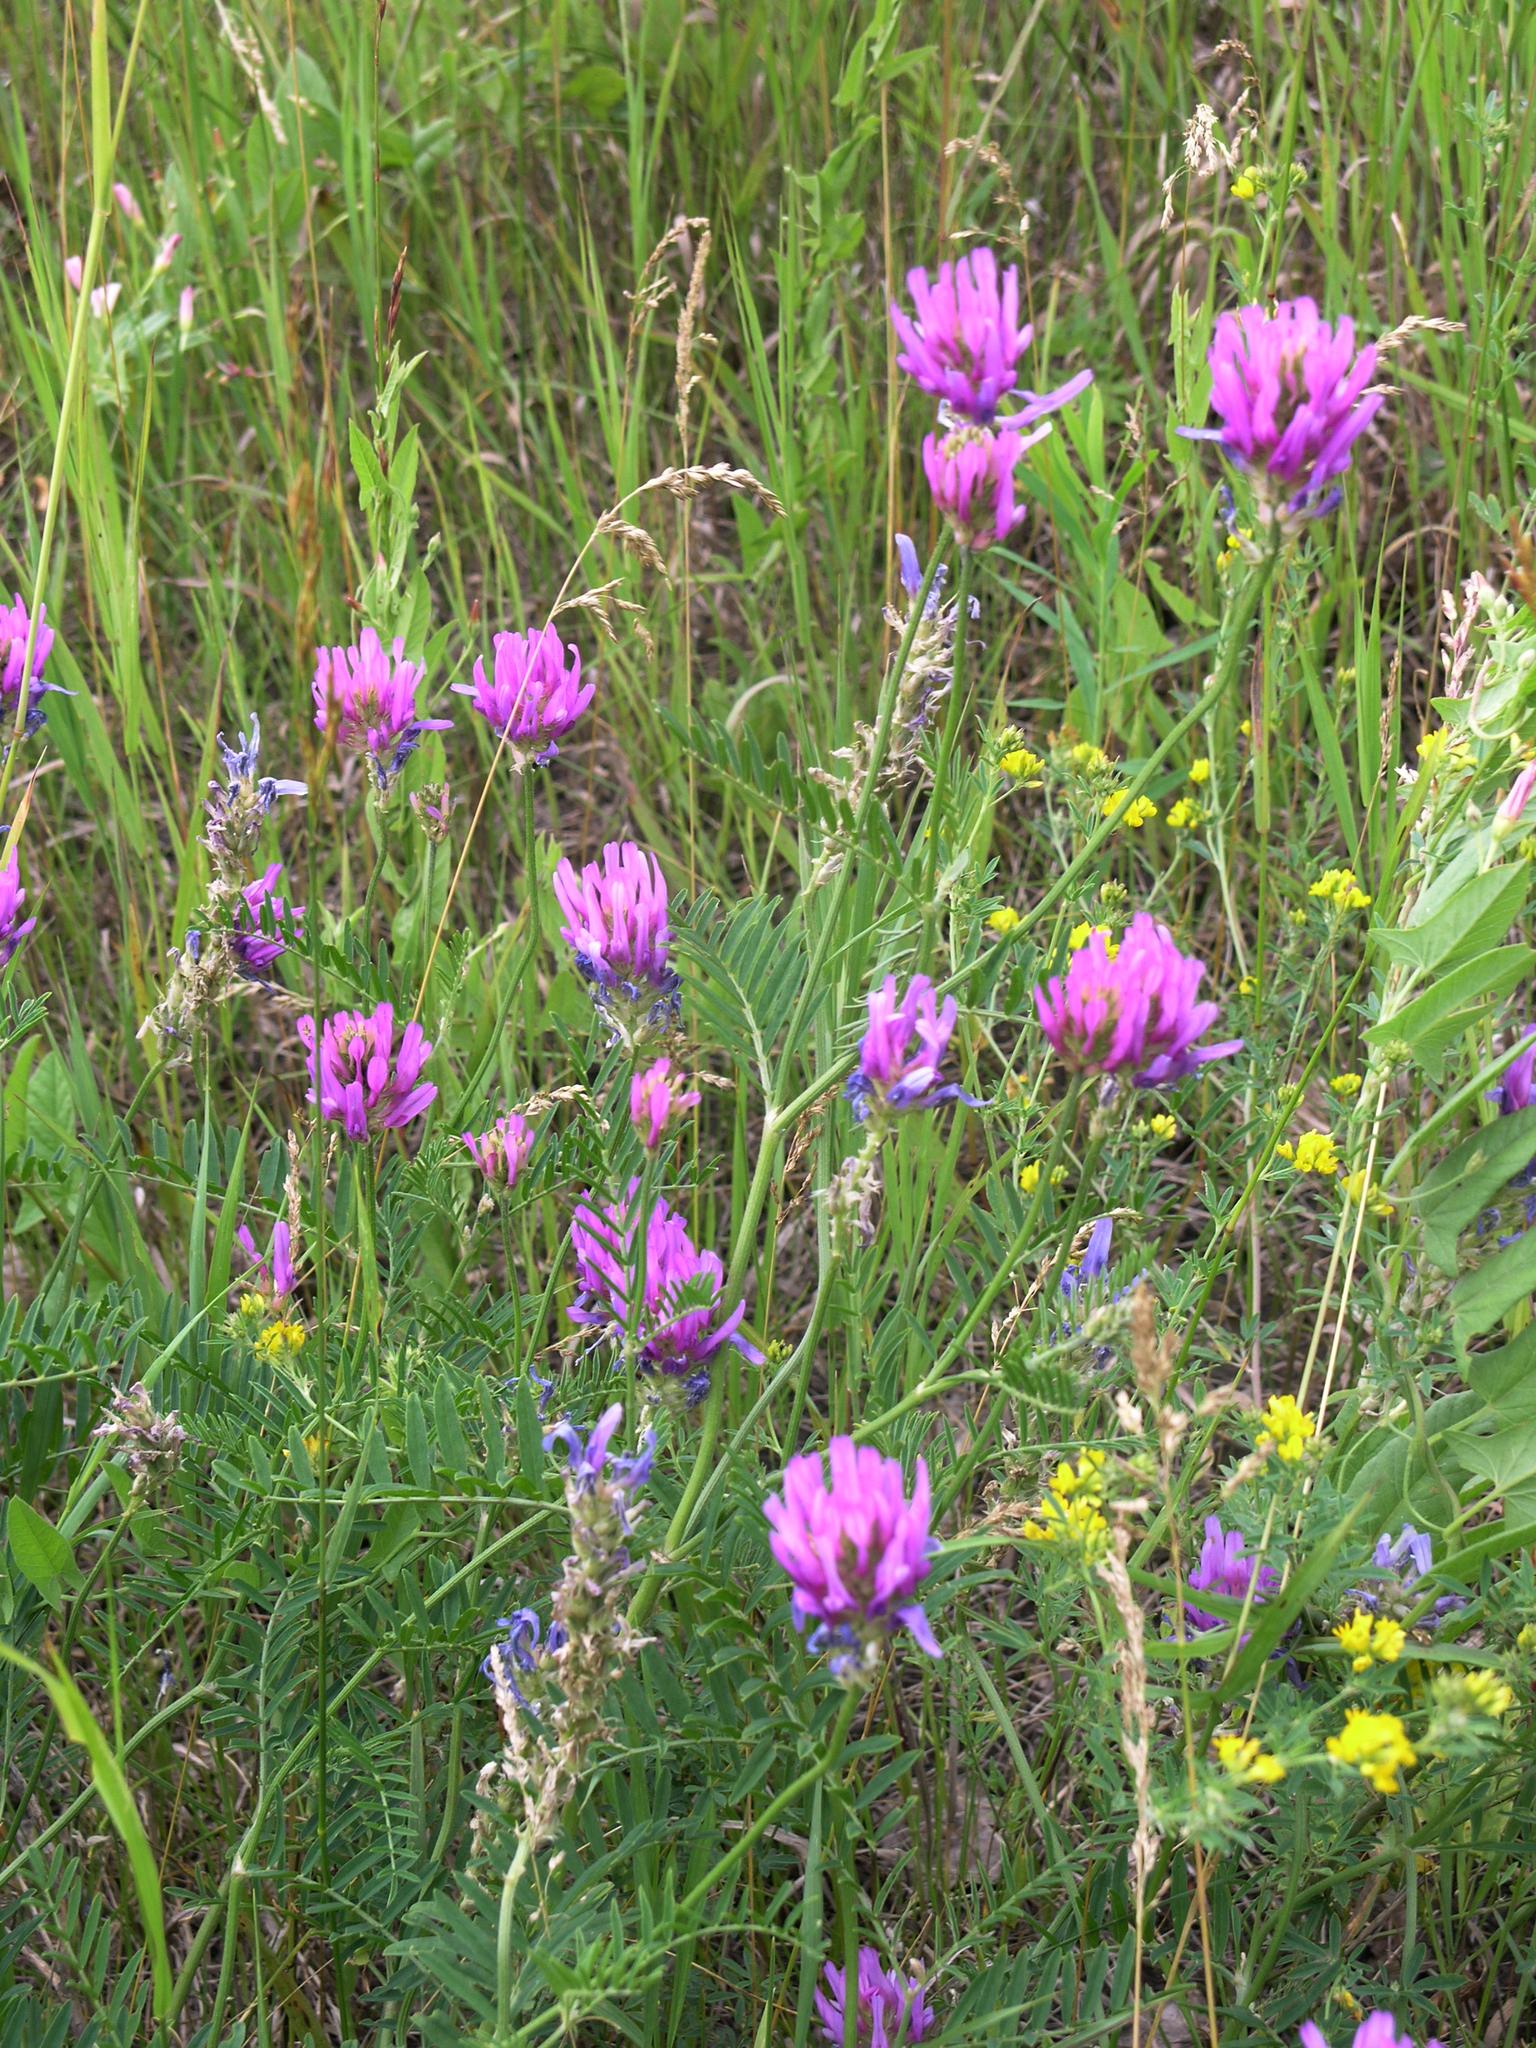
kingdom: Plantae
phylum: Tracheophyta
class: Magnoliopsida
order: Fabales
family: Fabaceae
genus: Astragalus
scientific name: Astragalus onobrychis
